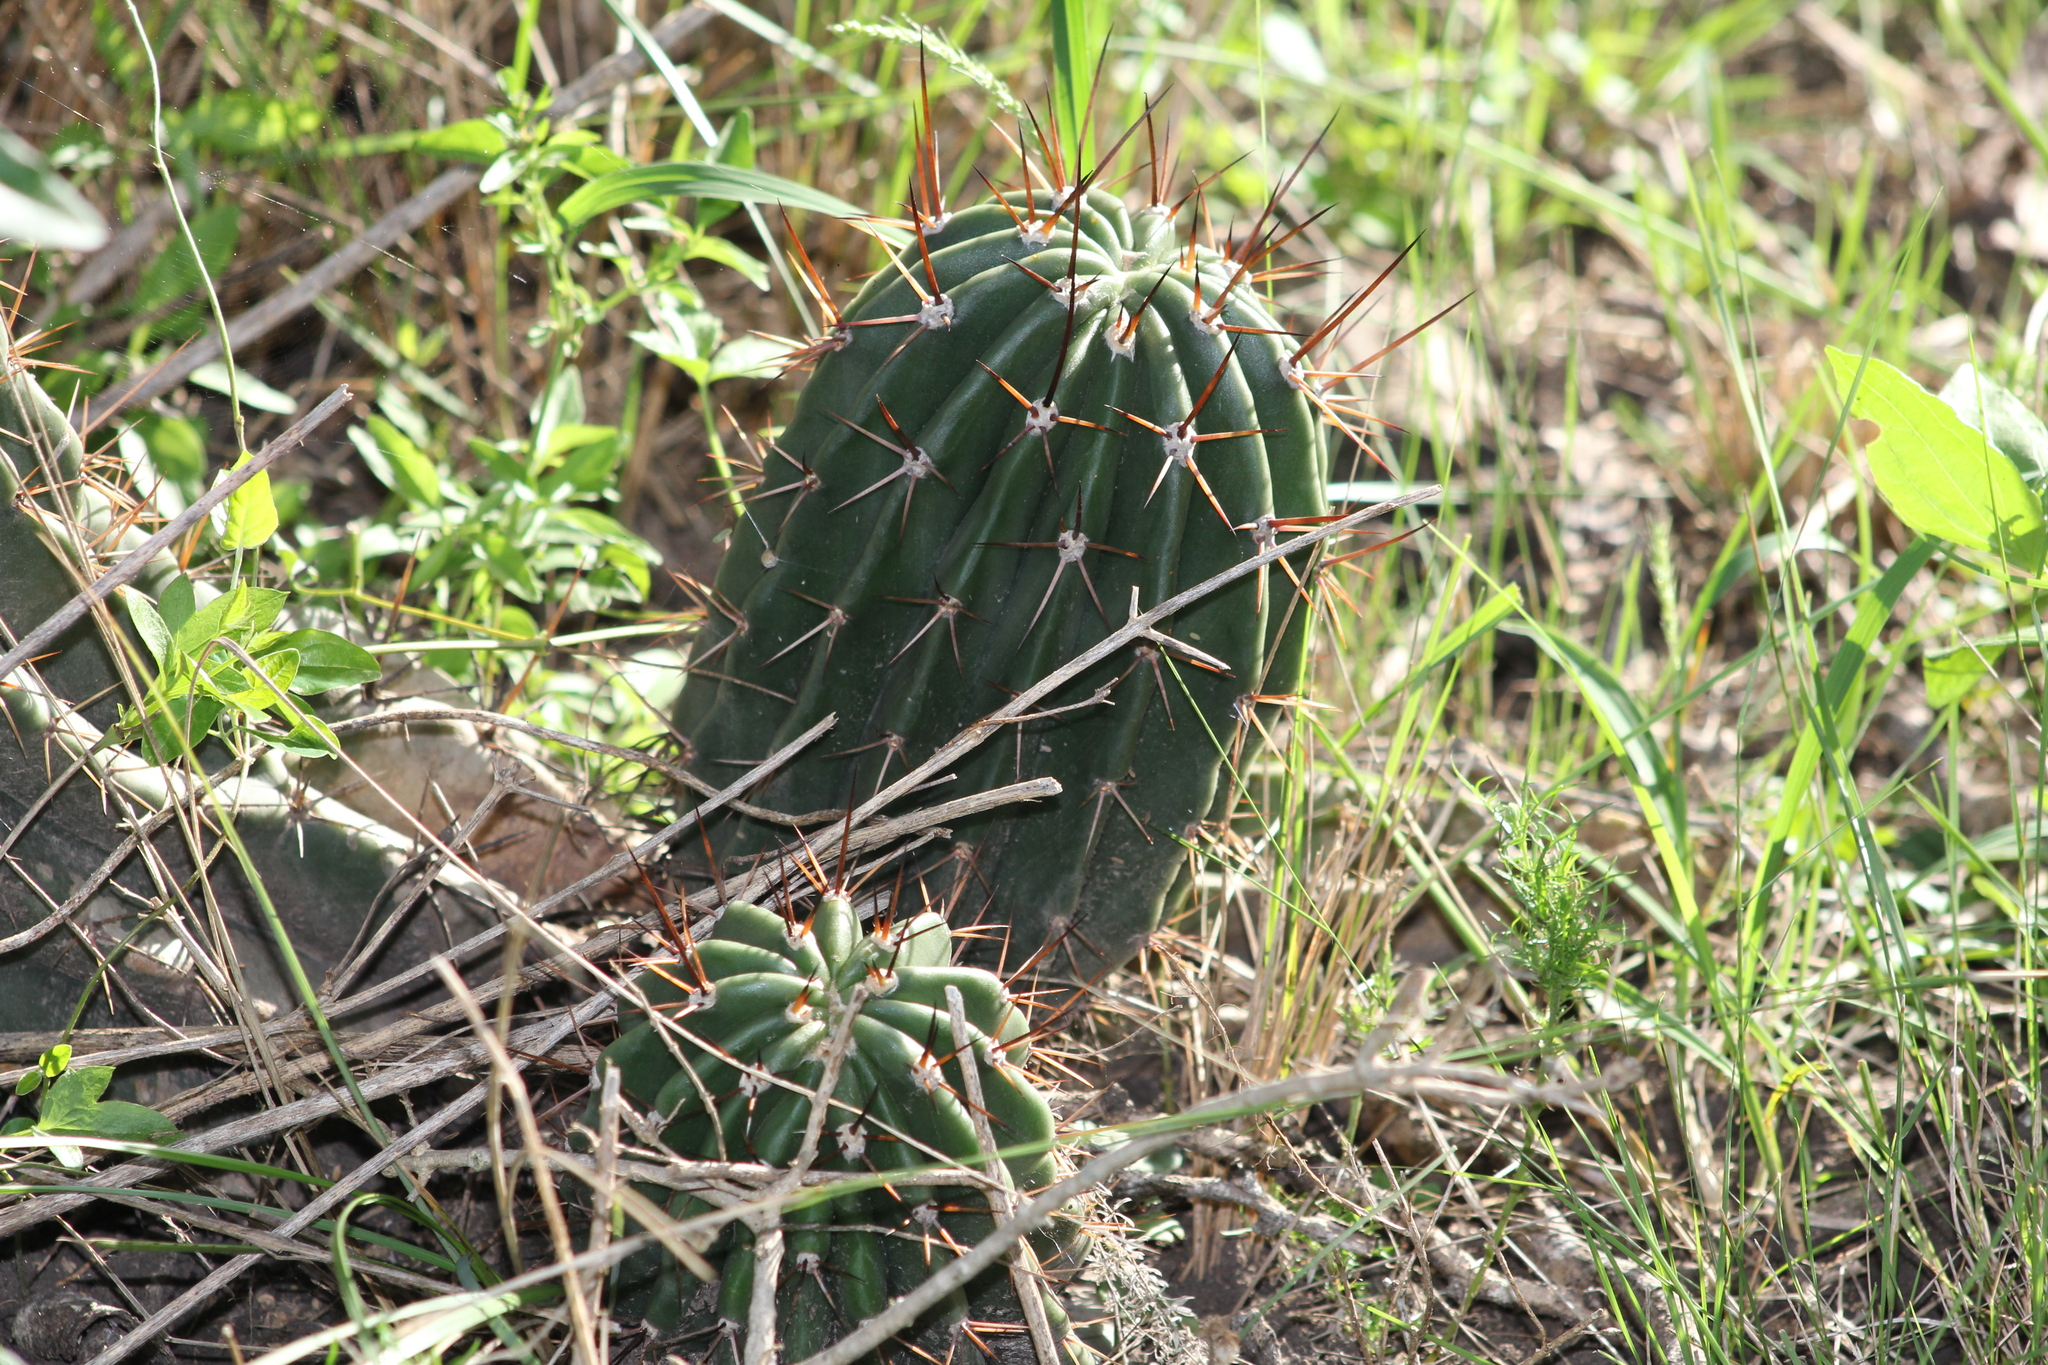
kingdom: Plantae
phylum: Tracheophyta
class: Magnoliopsida
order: Caryophyllales
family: Cactaceae
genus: Acanthocalycium
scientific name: Acanthocalycium rhodotrichum
